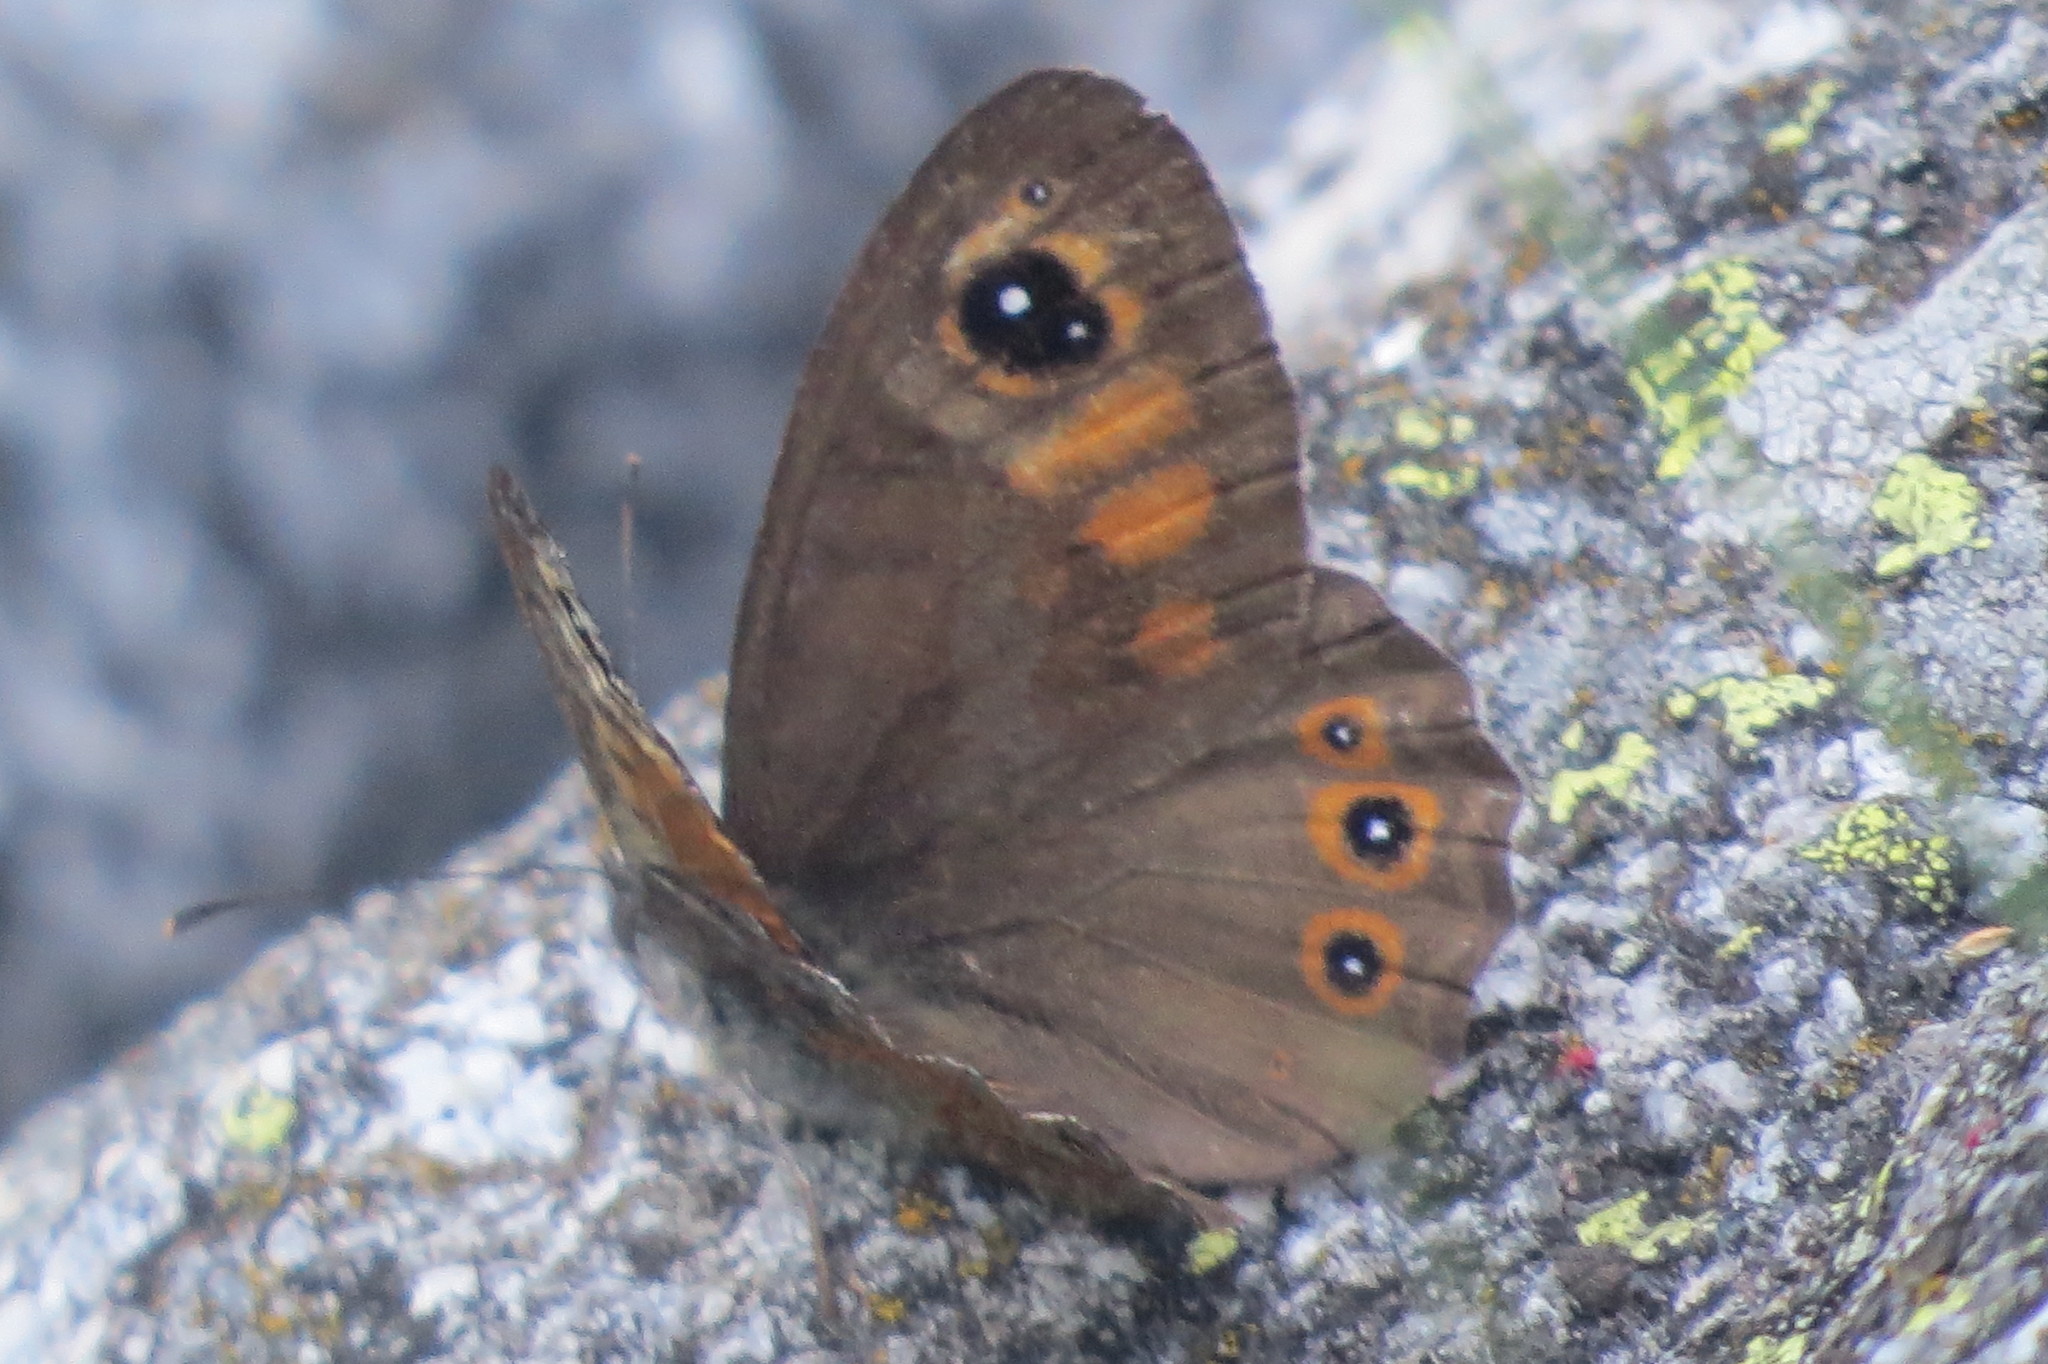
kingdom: Animalia
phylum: Arthropoda
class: Insecta
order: Lepidoptera
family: Nymphalidae
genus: Pararge
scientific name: Pararge Lasiommata maera
